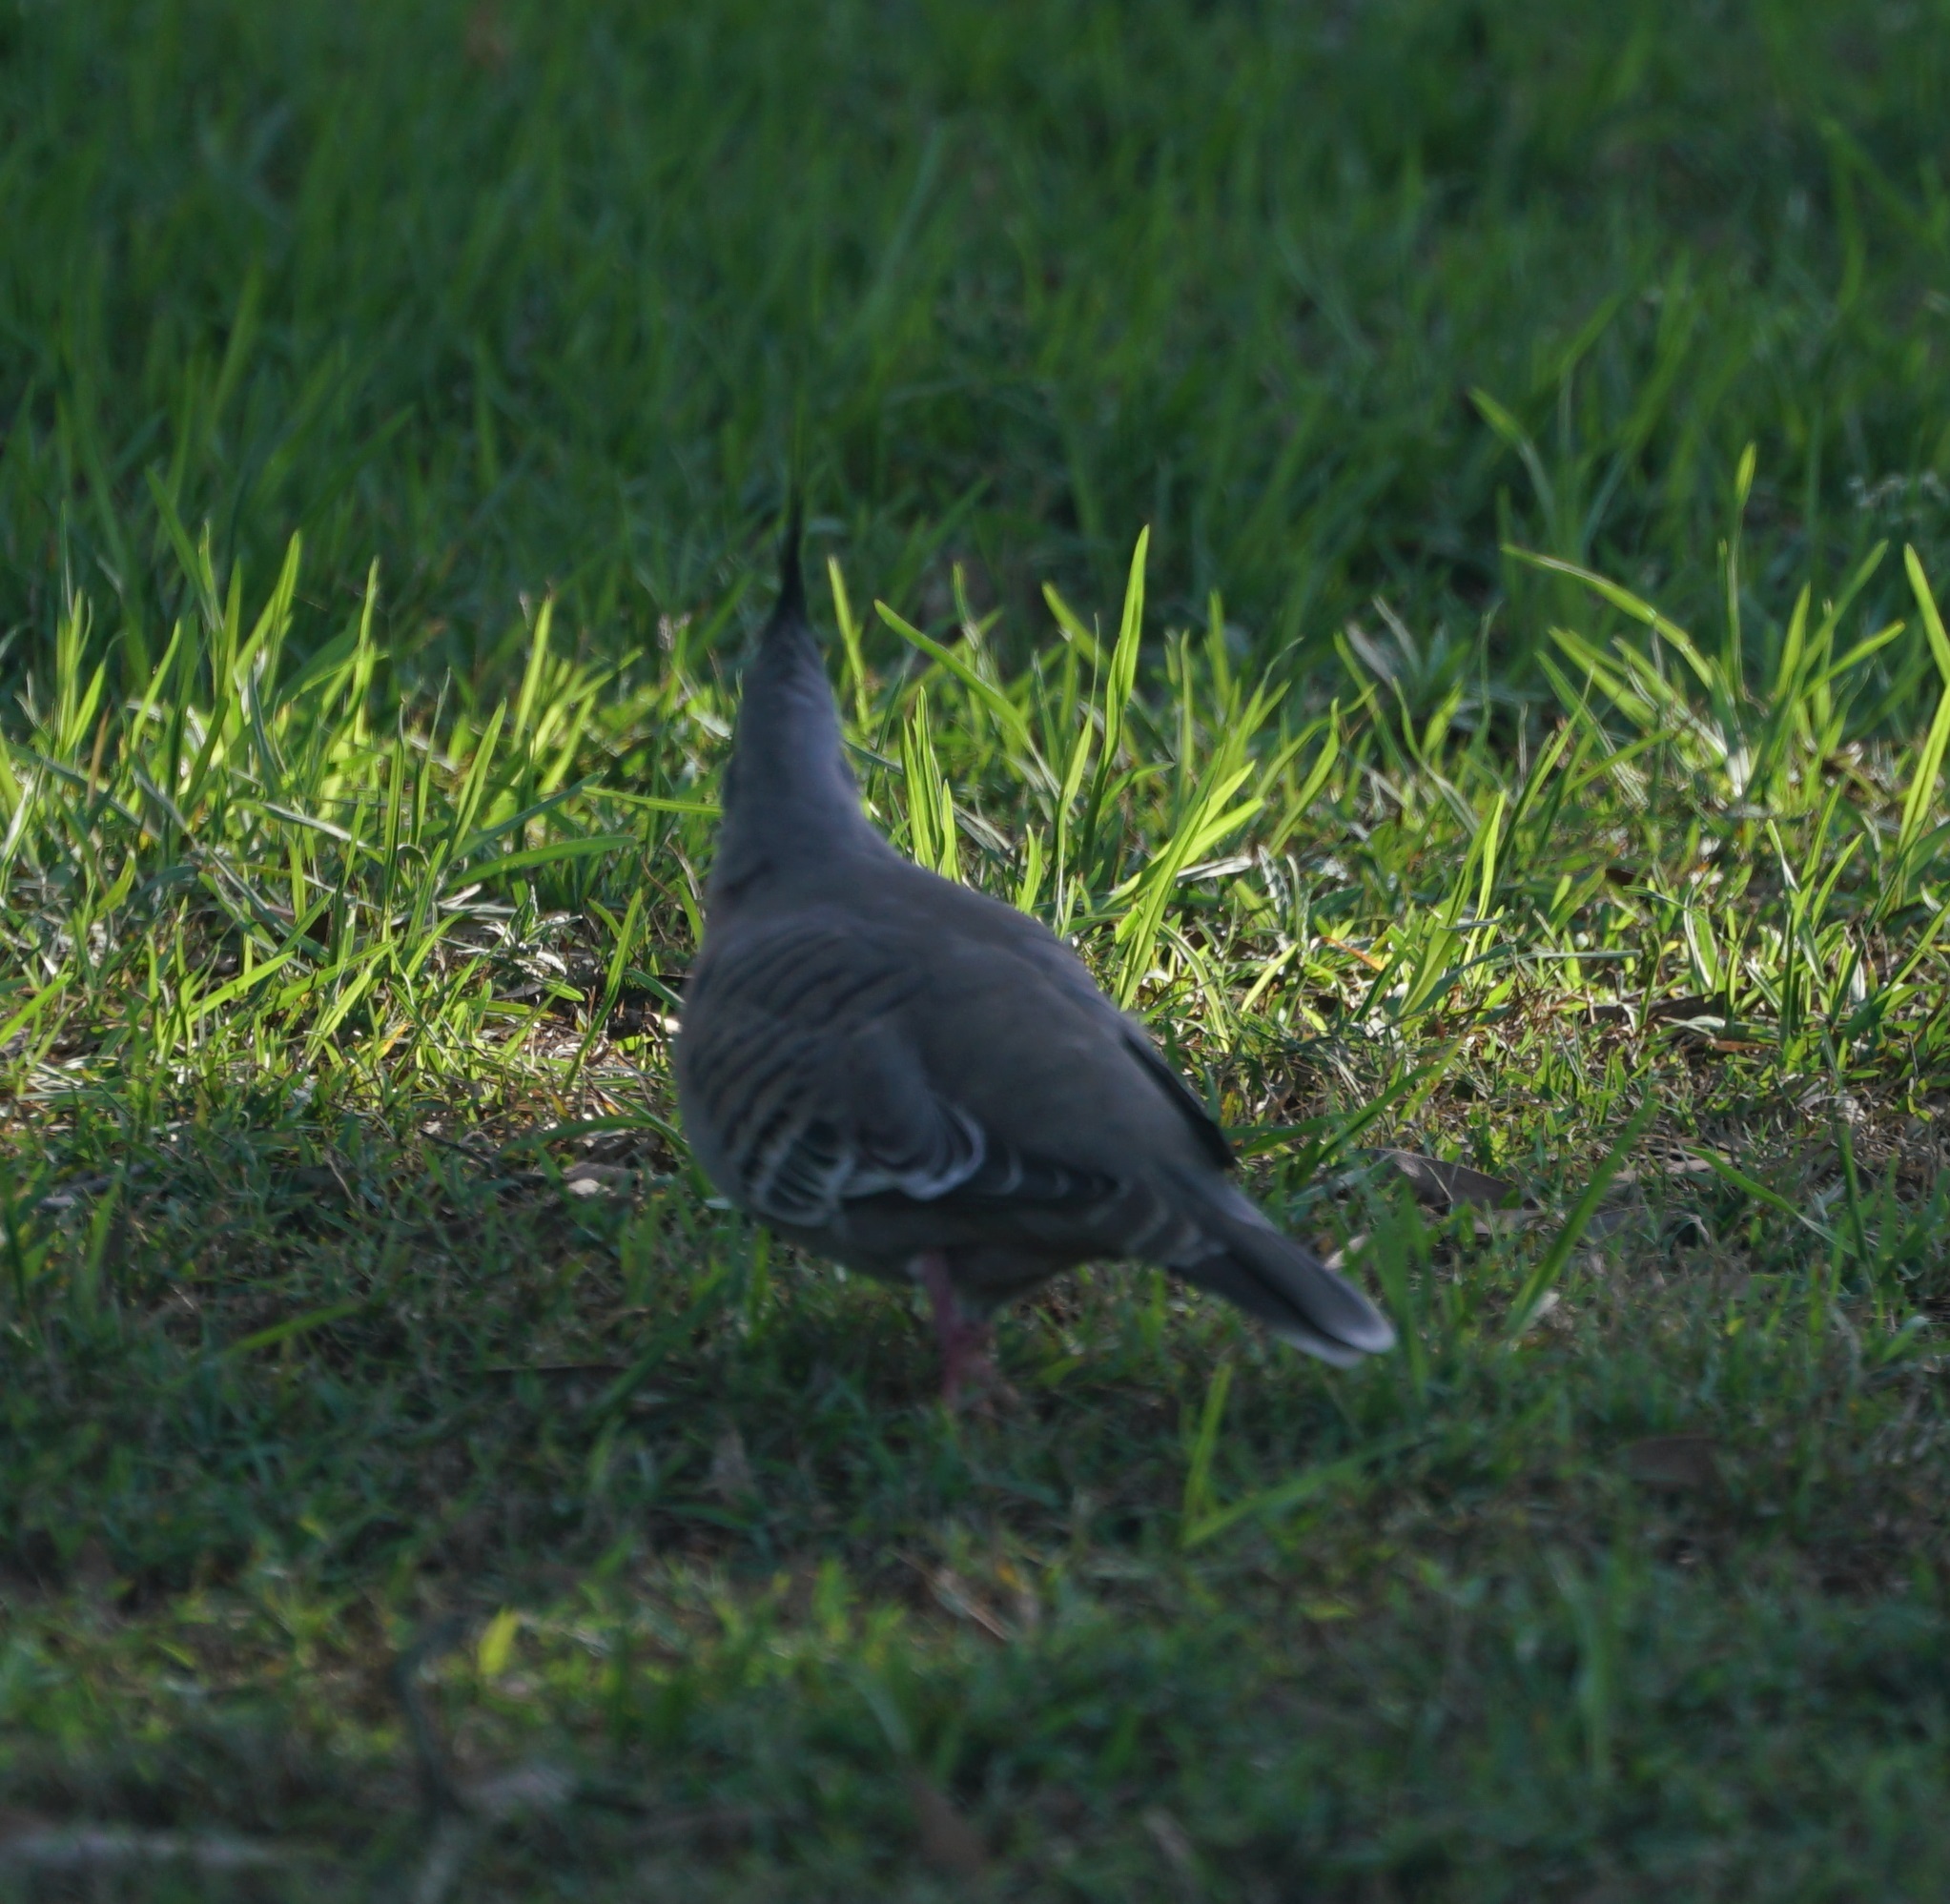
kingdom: Animalia
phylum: Chordata
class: Aves
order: Columbiformes
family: Columbidae
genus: Ocyphaps
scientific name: Ocyphaps lophotes
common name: Crested pigeon
